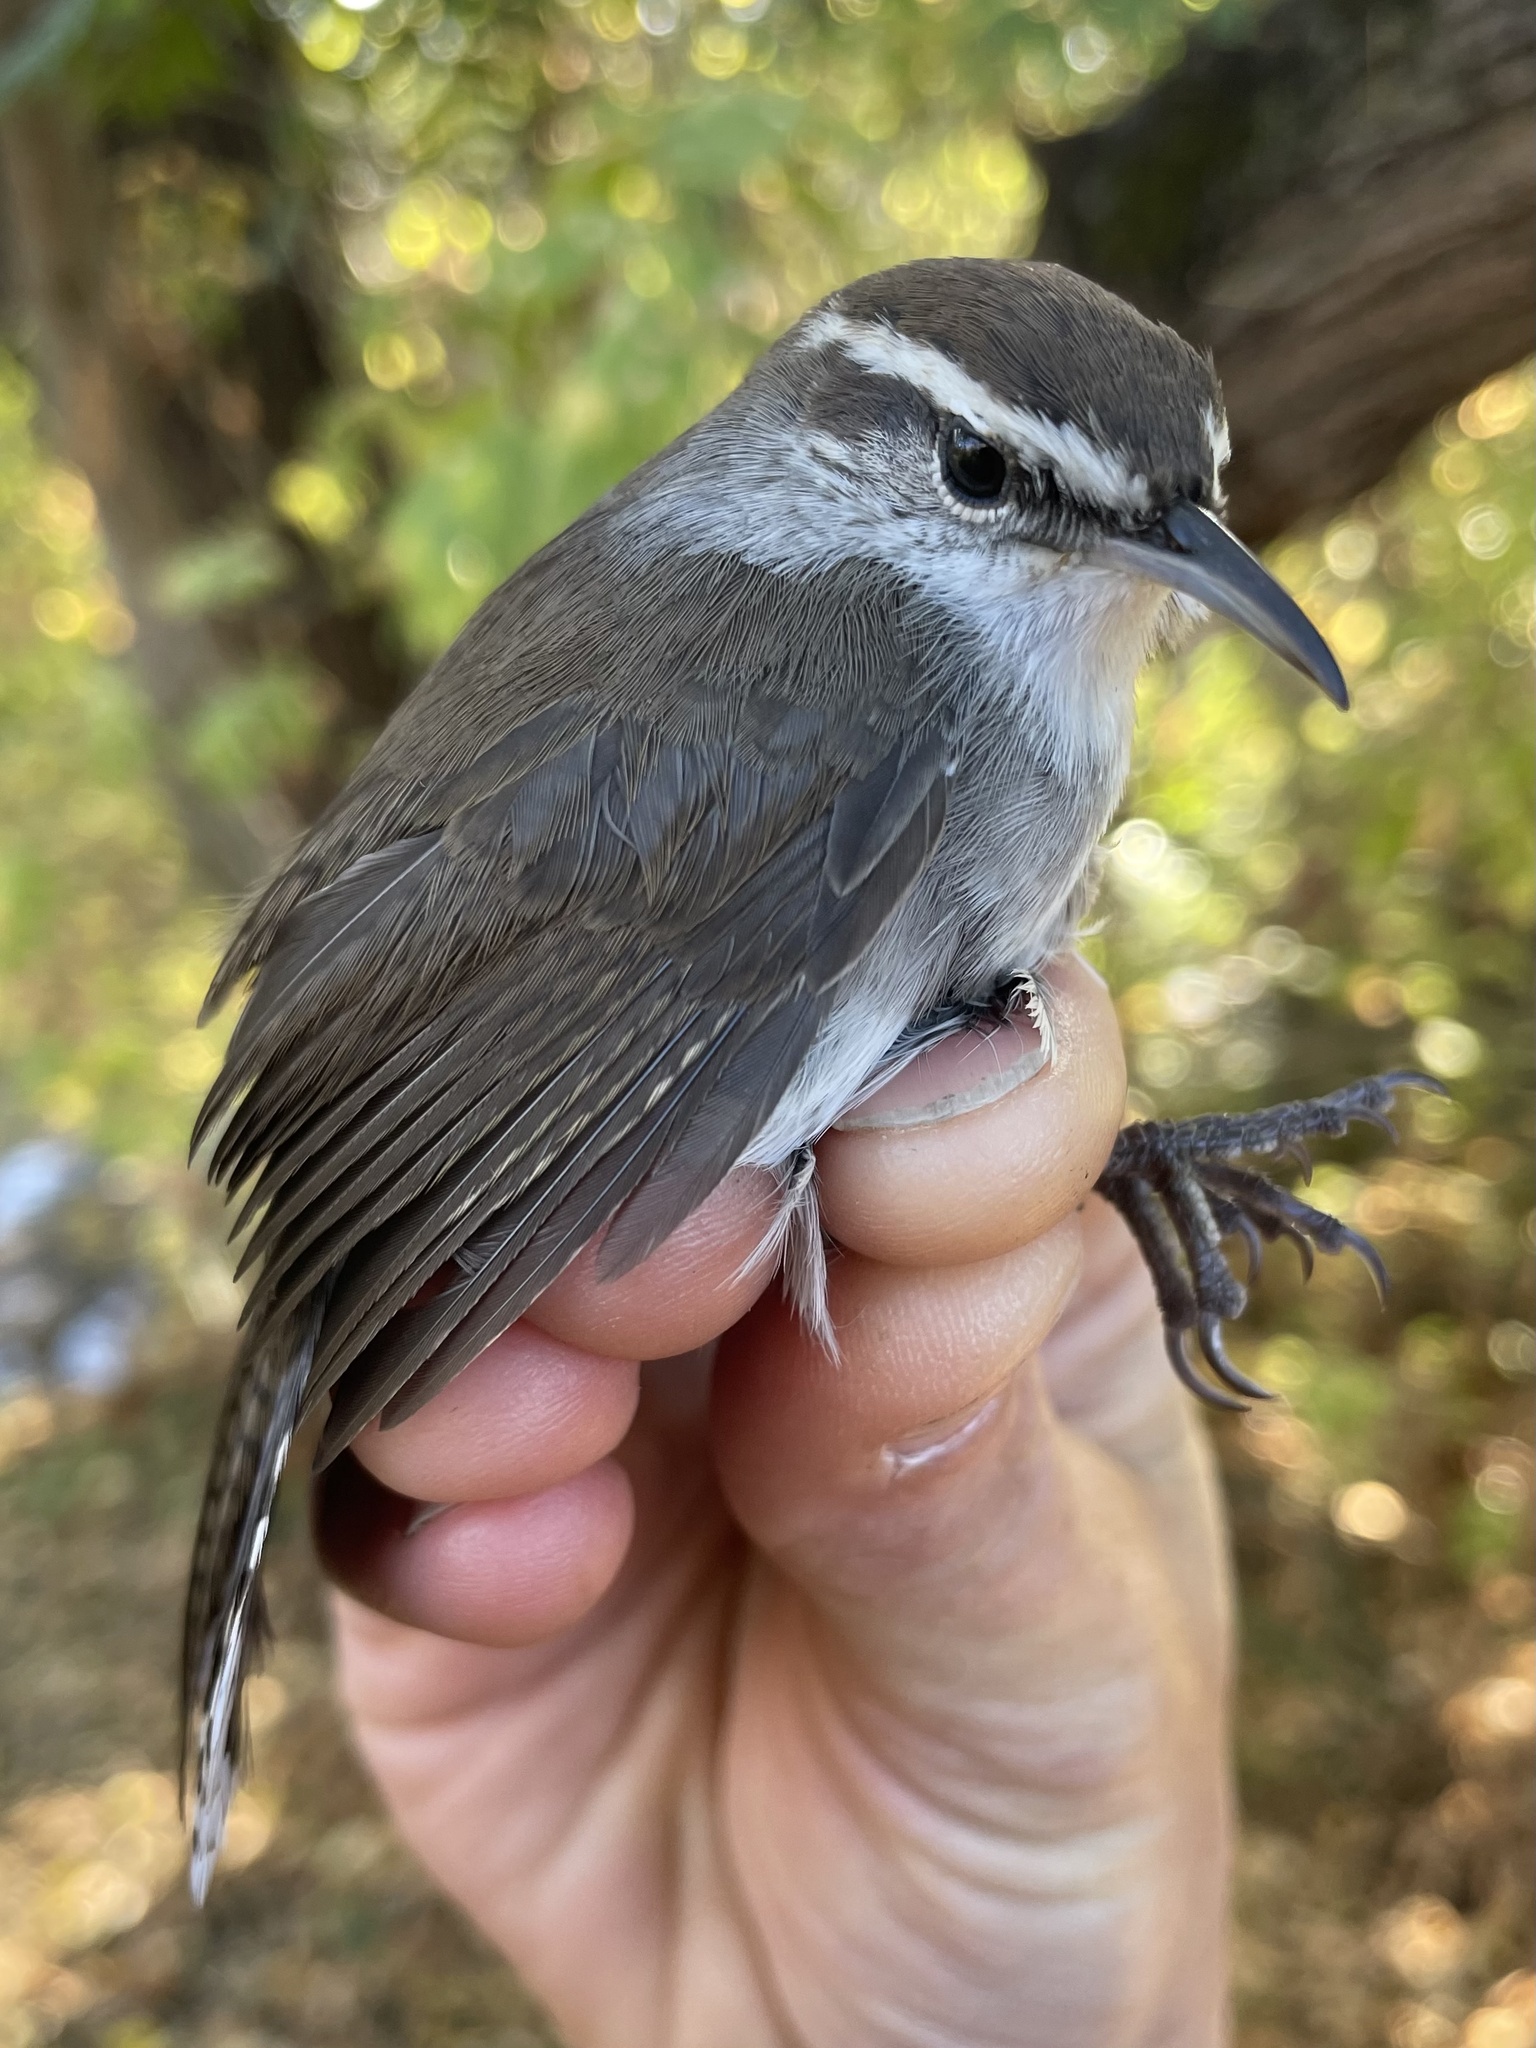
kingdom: Animalia
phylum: Chordata
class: Aves
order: Passeriformes
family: Troglodytidae
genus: Thryomanes
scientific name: Thryomanes bewickii
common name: Bewick's wren
